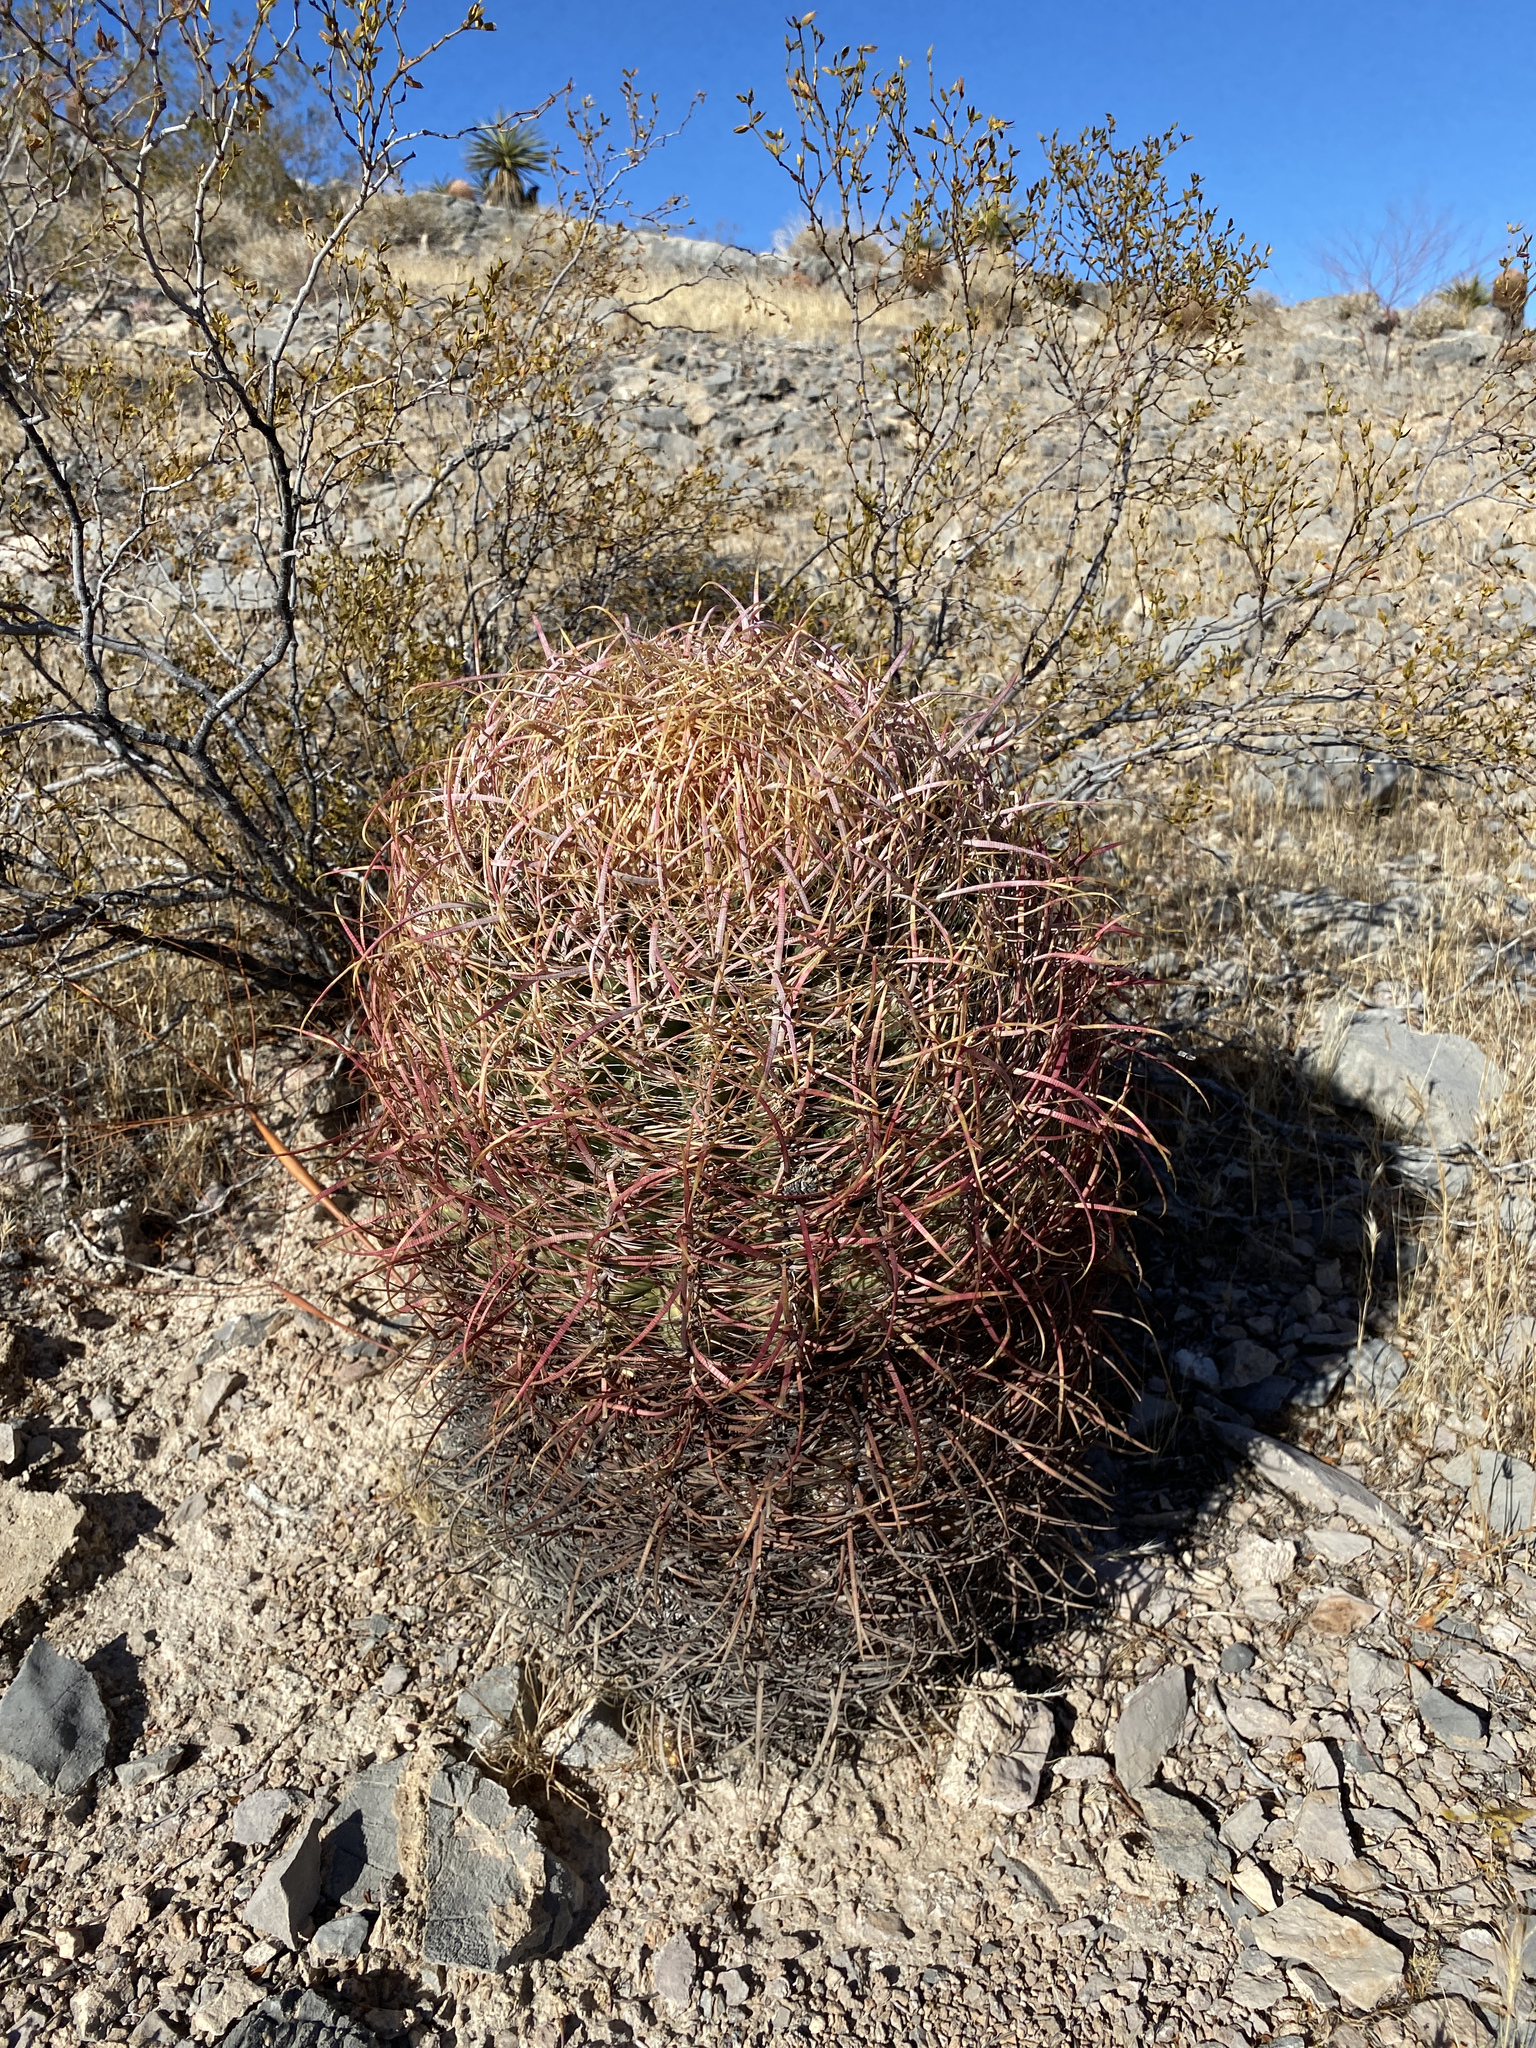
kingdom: Plantae
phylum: Tracheophyta
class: Magnoliopsida
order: Caryophyllales
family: Cactaceae
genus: Ferocactus
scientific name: Ferocactus cylindraceus
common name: California barrel cactus
